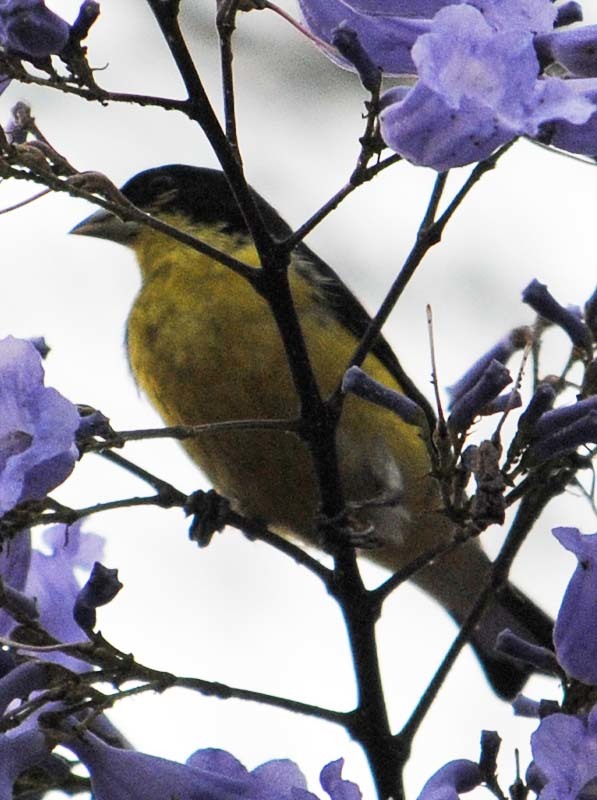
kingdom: Animalia
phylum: Chordata
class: Aves
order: Passeriformes
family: Fringillidae
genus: Spinus
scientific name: Spinus psaltria
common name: Lesser goldfinch
